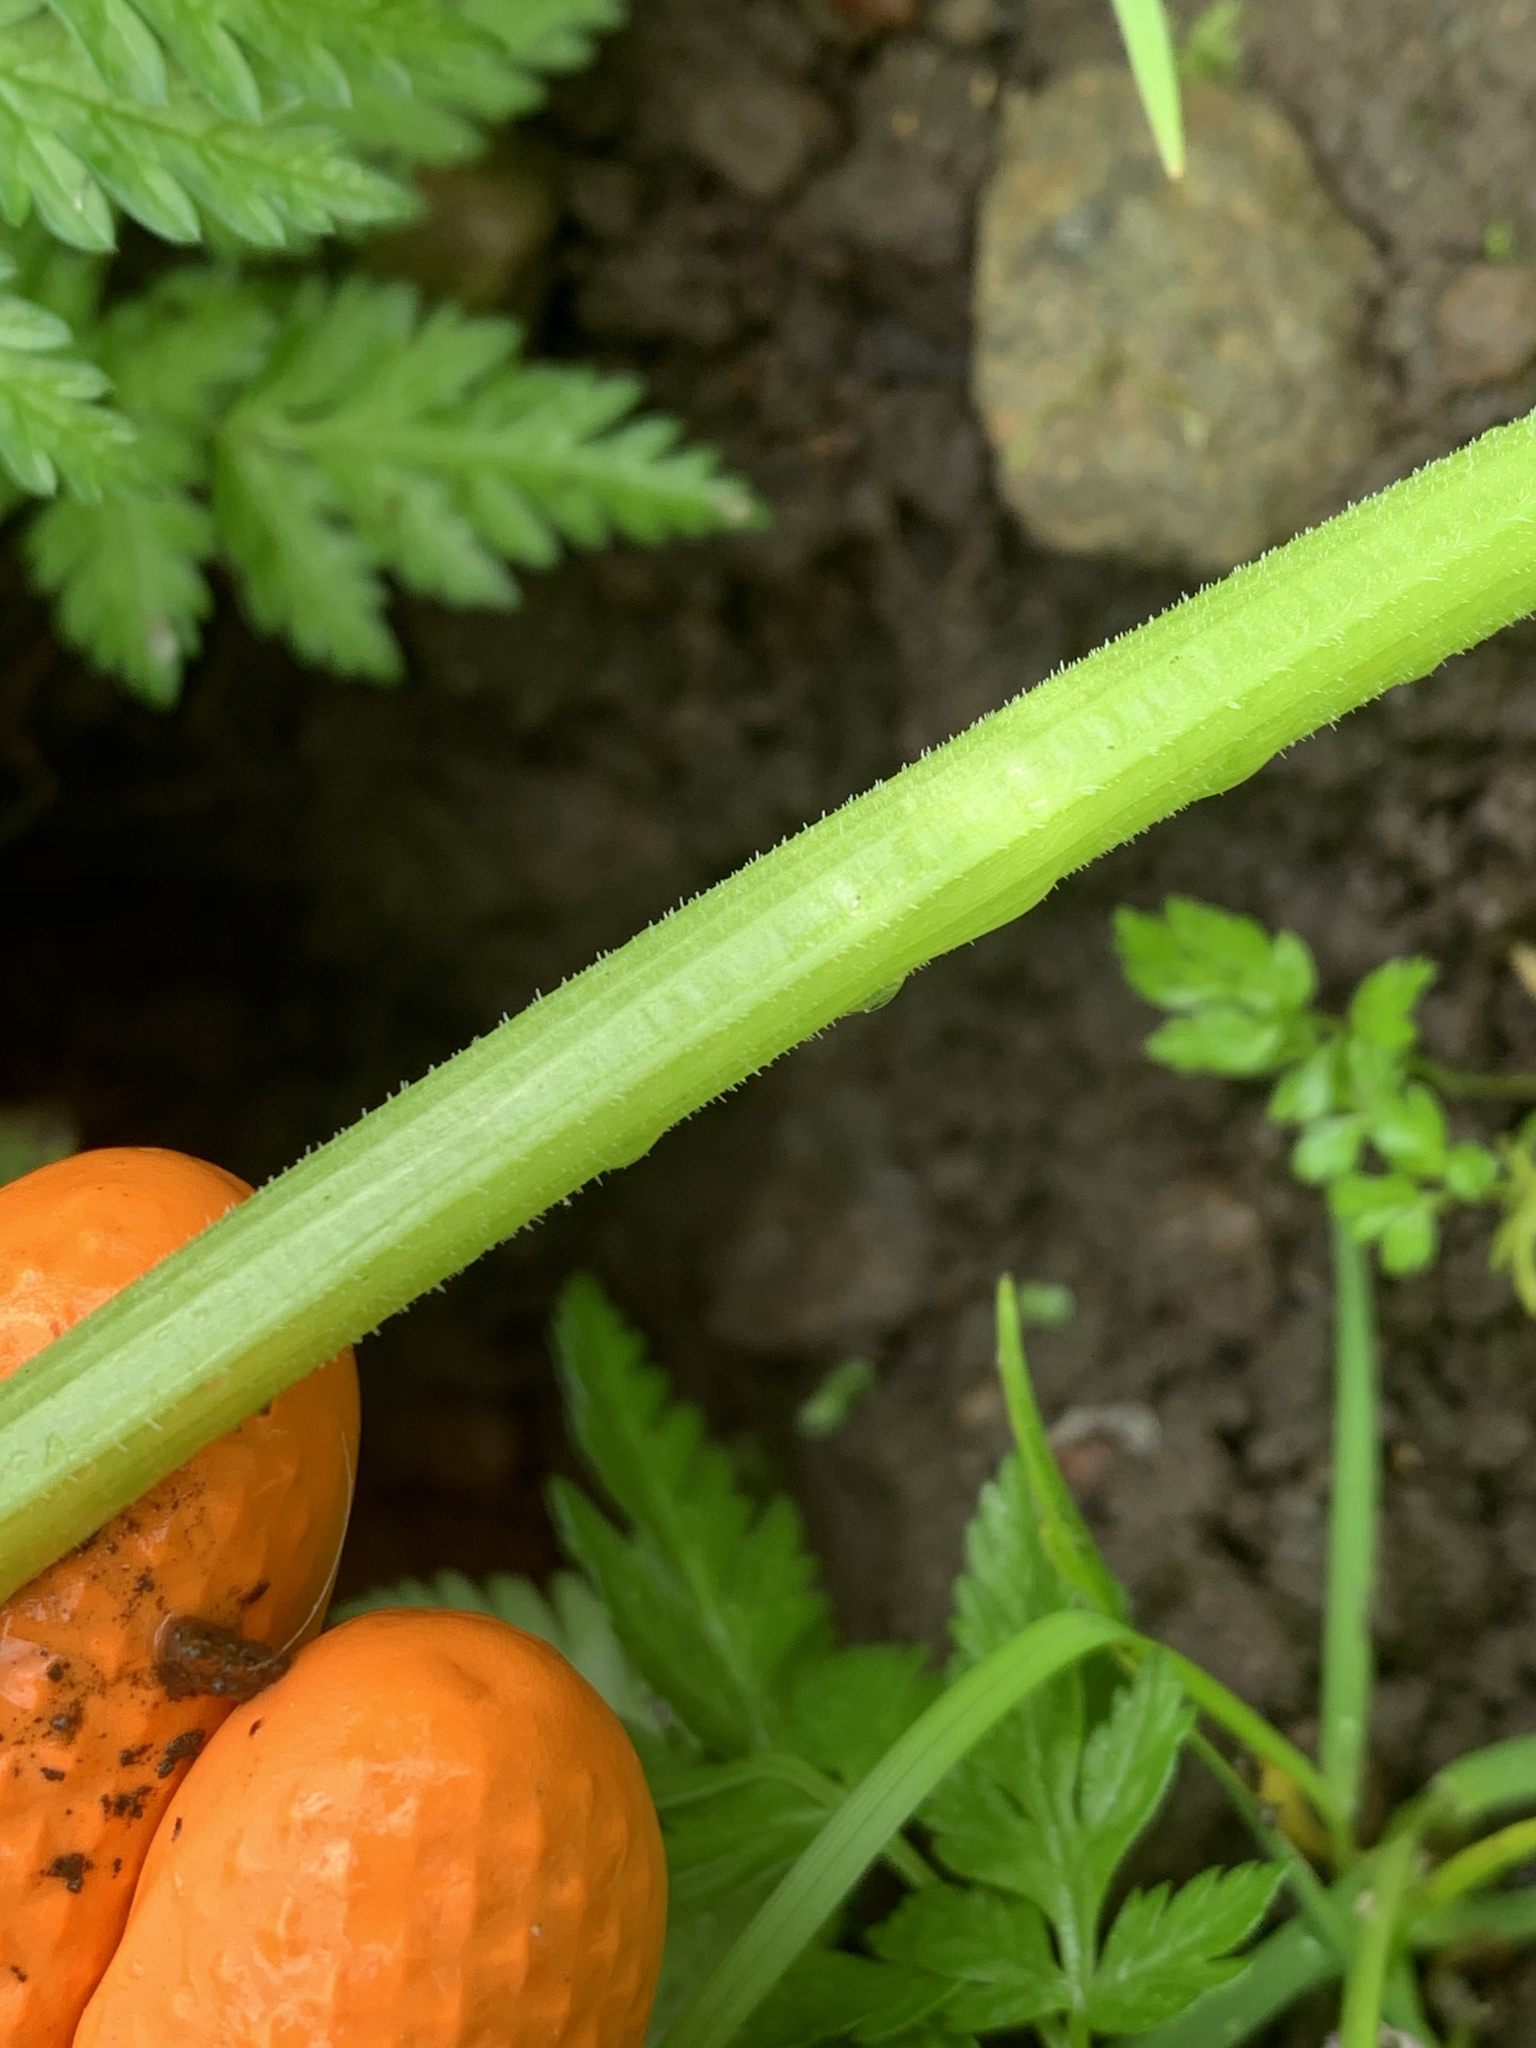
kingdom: Plantae
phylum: Tracheophyta
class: Magnoliopsida
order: Apiales
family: Apiaceae
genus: Anthriscus
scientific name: Anthriscus sylvestris
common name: Cow parsley
